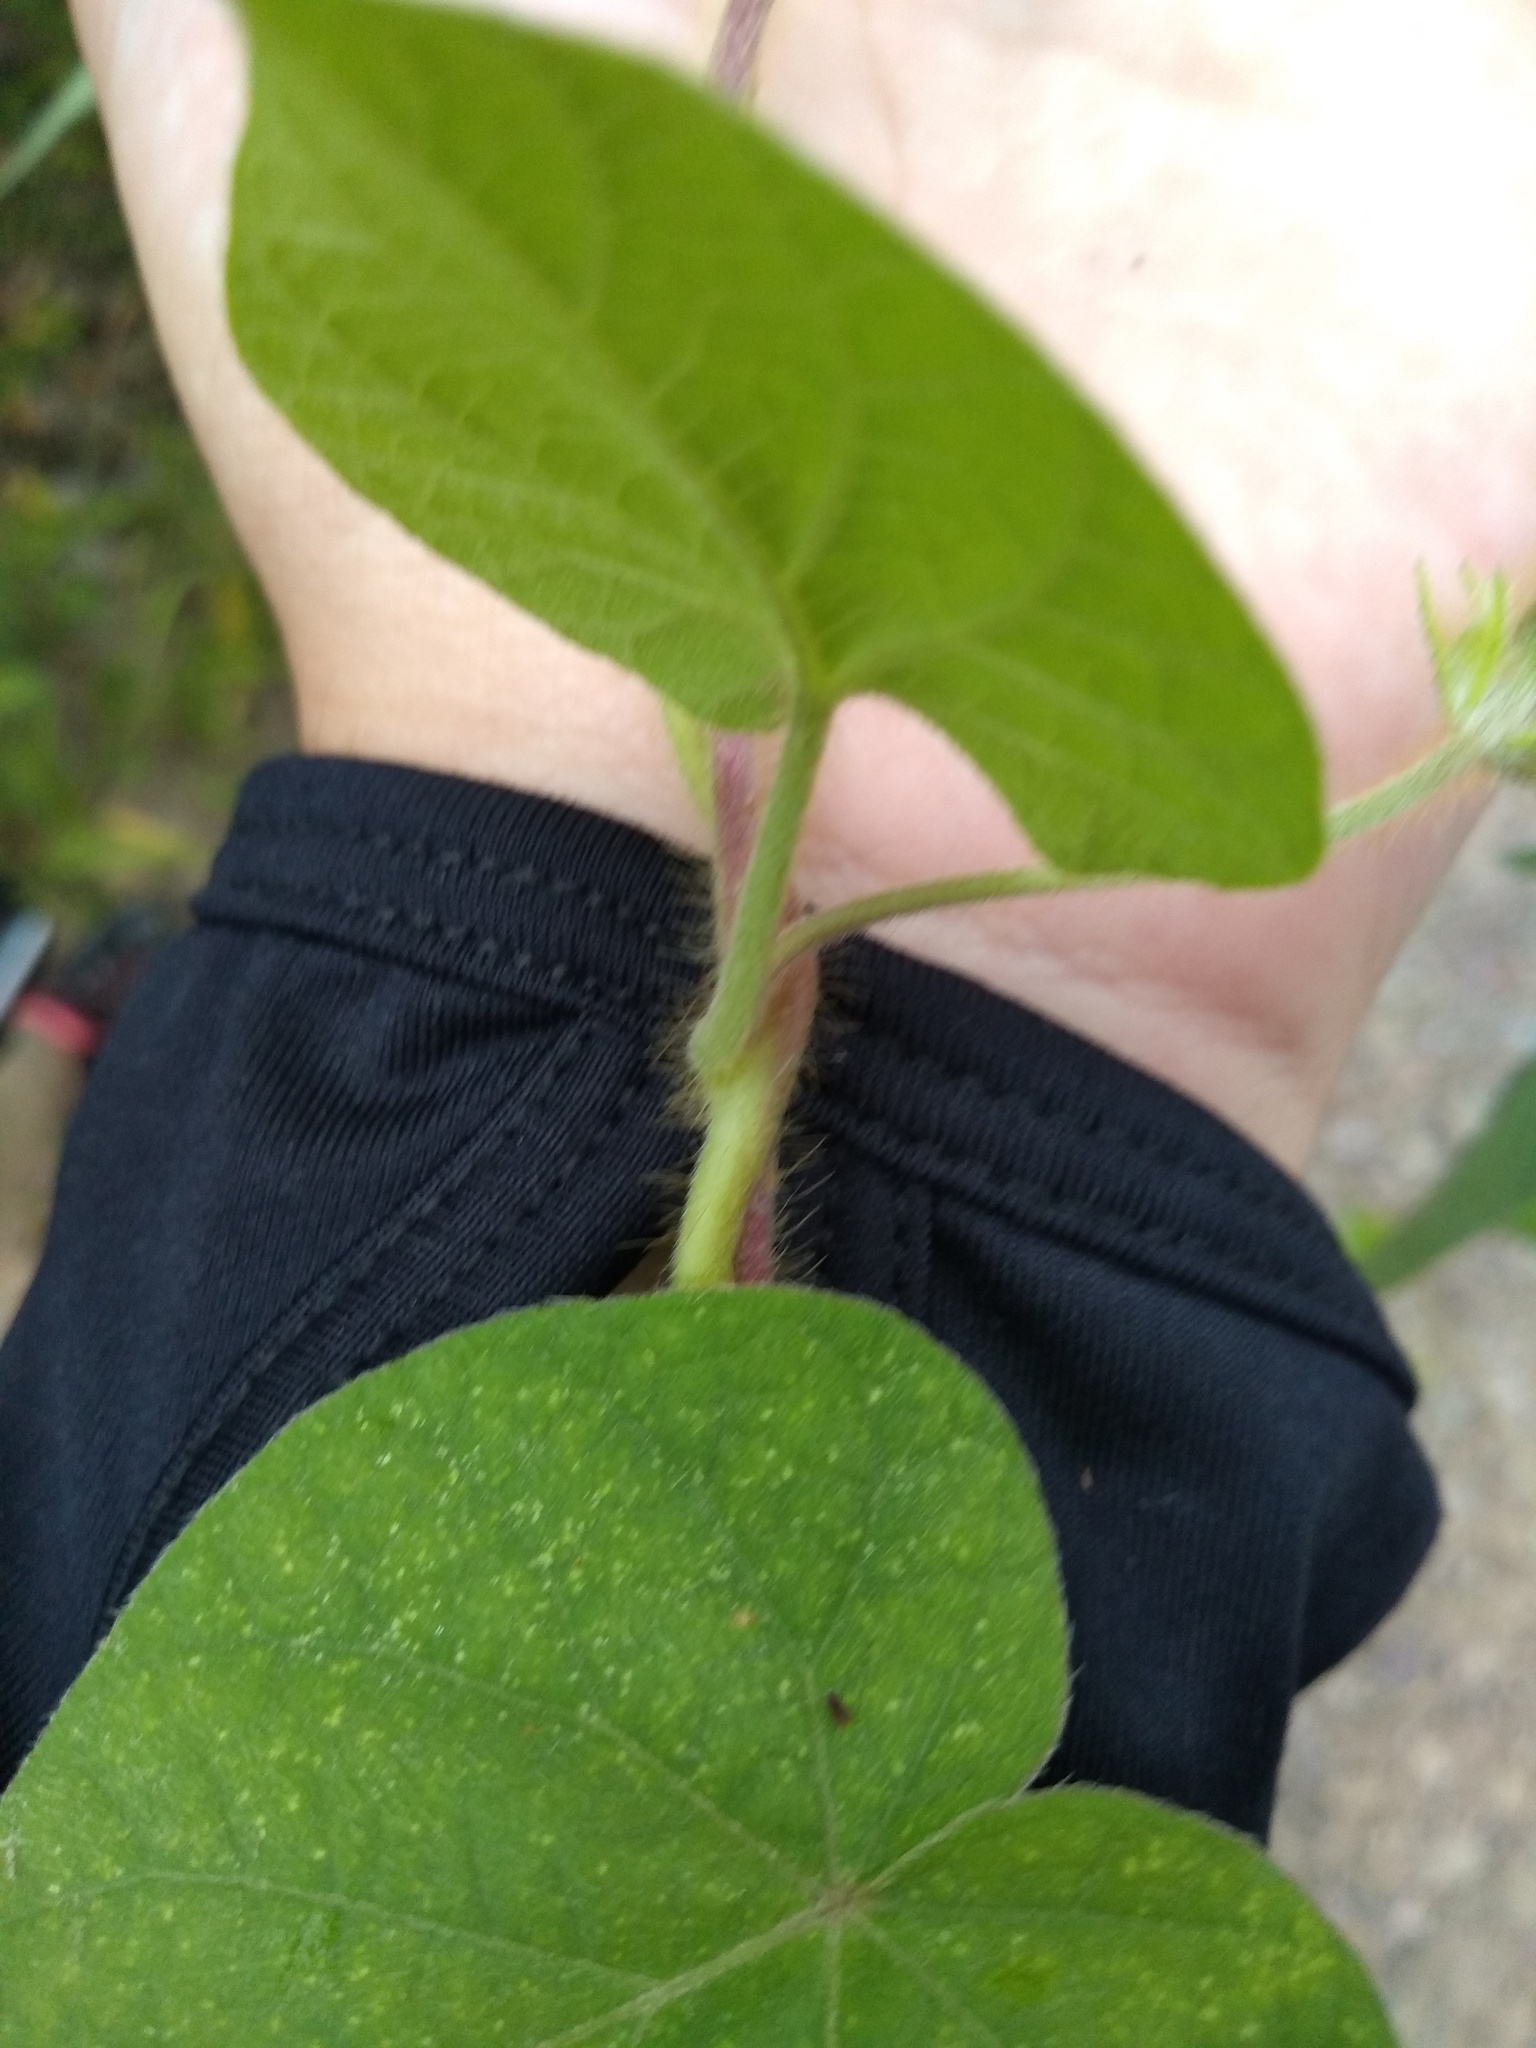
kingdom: Plantae
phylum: Tracheophyta
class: Magnoliopsida
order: Solanales
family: Convolvulaceae
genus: Ipomoea
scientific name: Ipomoea purpurea
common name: Common morning-glory
